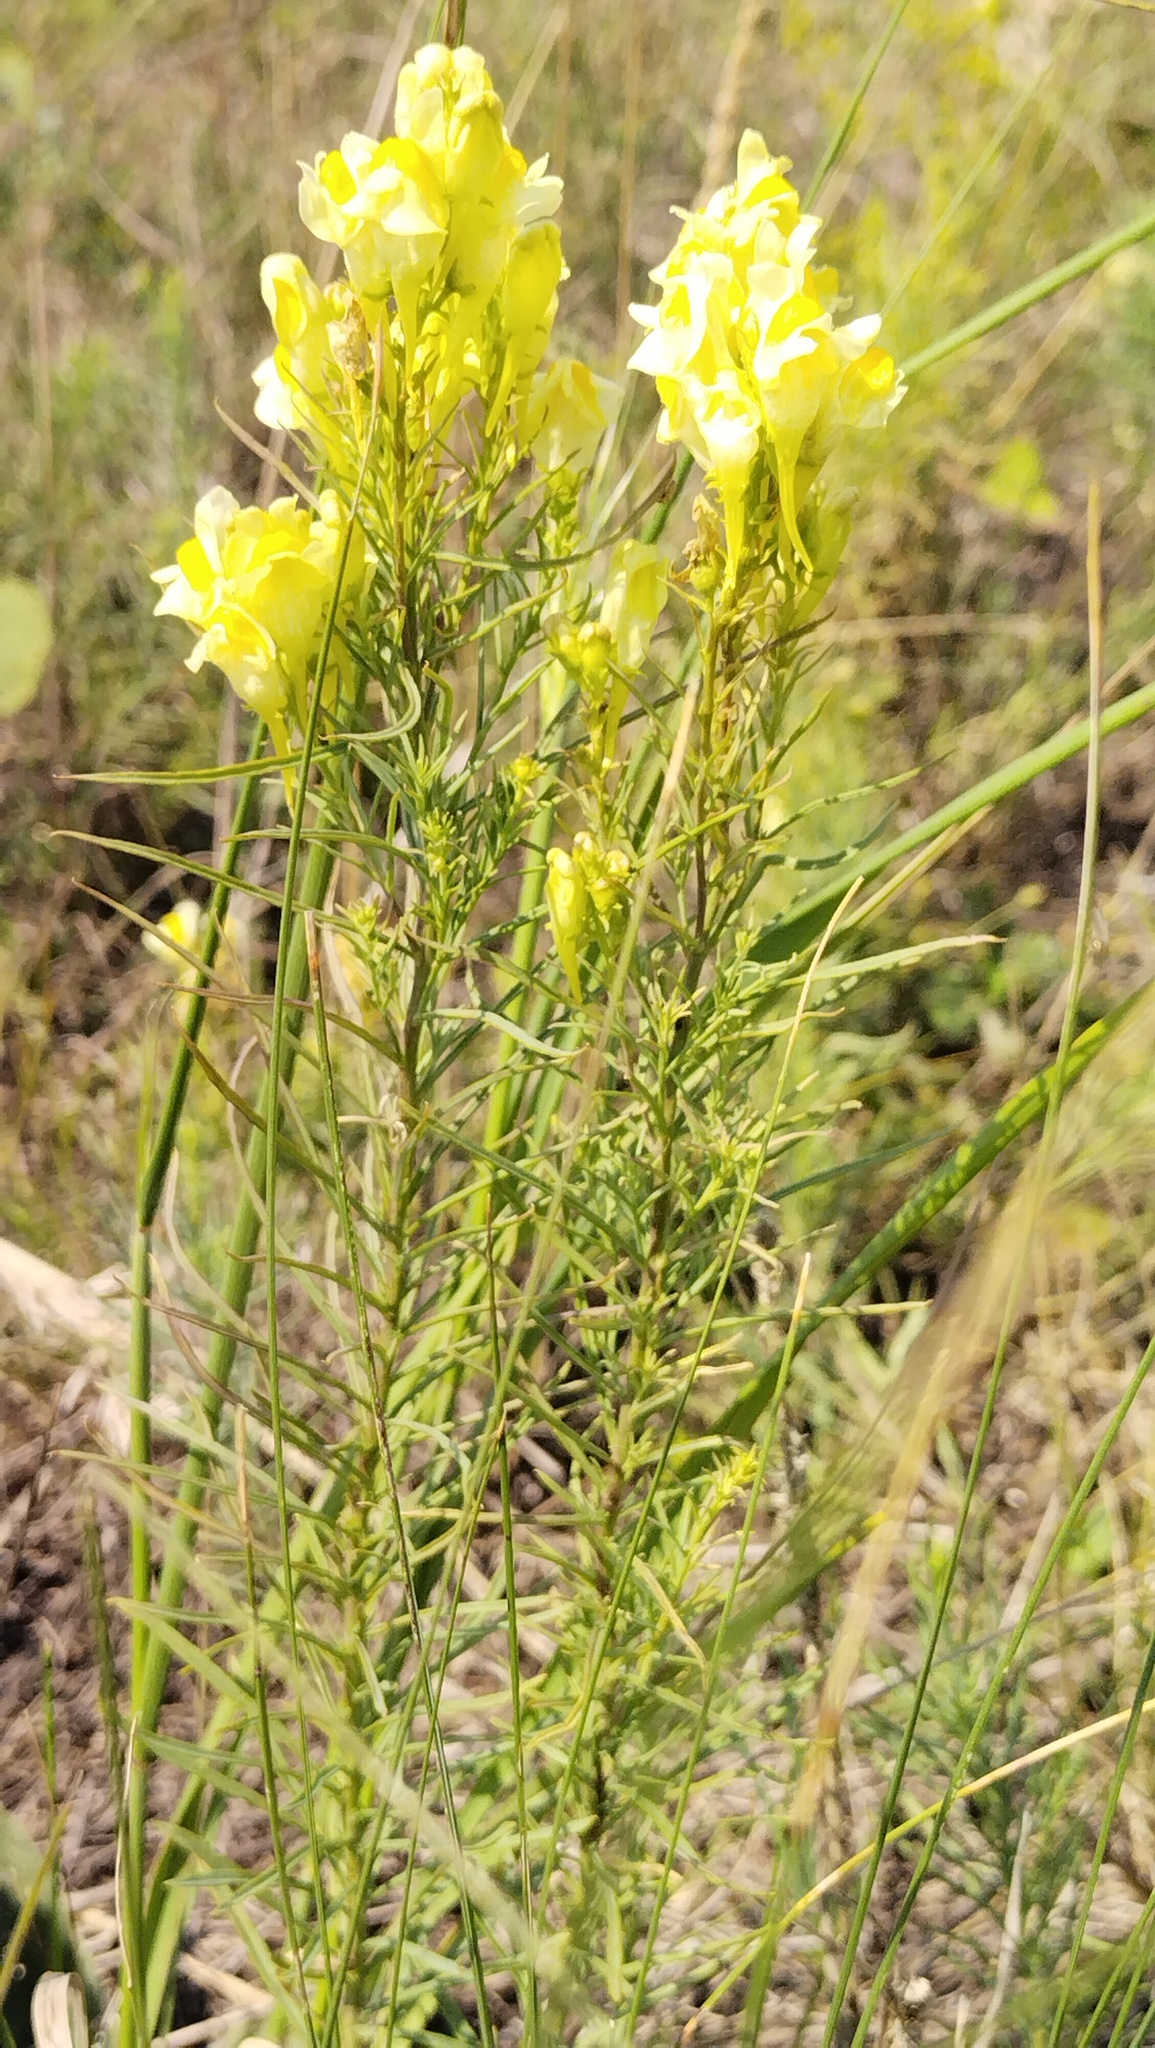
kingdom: Plantae
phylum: Tracheophyta
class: Magnoliopsida
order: Lamiales
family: Plantaginaceae
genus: Linaria
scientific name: Linaria vulgaris
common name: Butter and eggs
